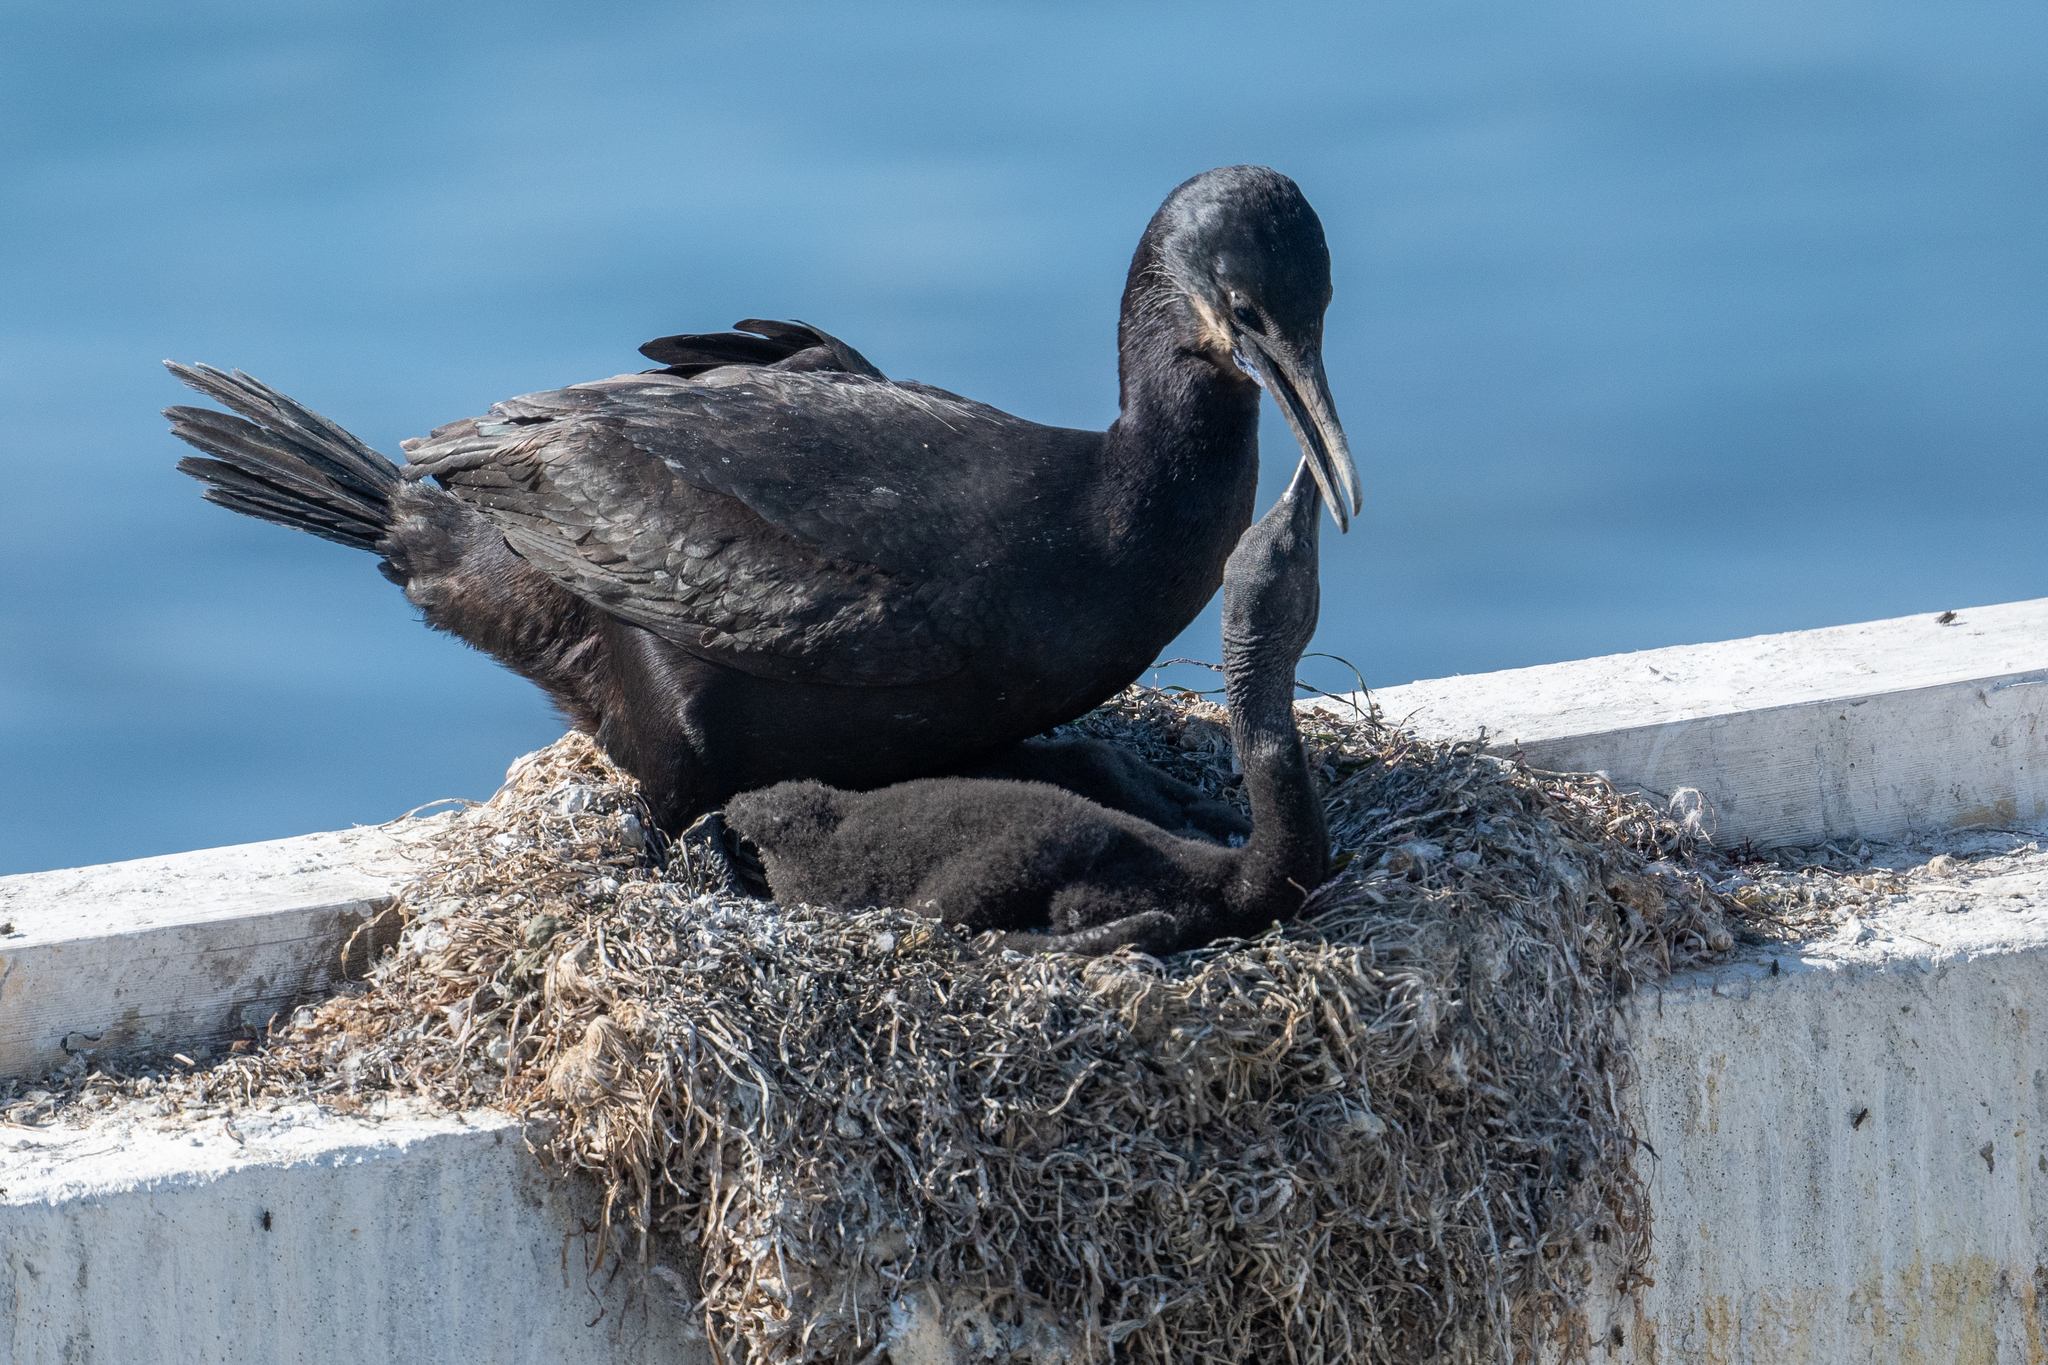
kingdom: Animalia
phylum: Chordata
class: Aves
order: Suliformes
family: Phalacrocoracidae
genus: Urile
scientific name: Urile penicillatus
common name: Brandt's cormorant
